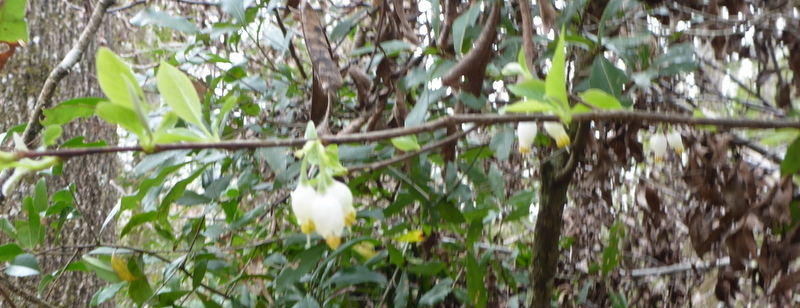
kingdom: Plantae
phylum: Tracheophyta
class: Magnoliopsida
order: Ericales
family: Styracaceae
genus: Halesia
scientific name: Halesia carolina
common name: Carolina silverbell
